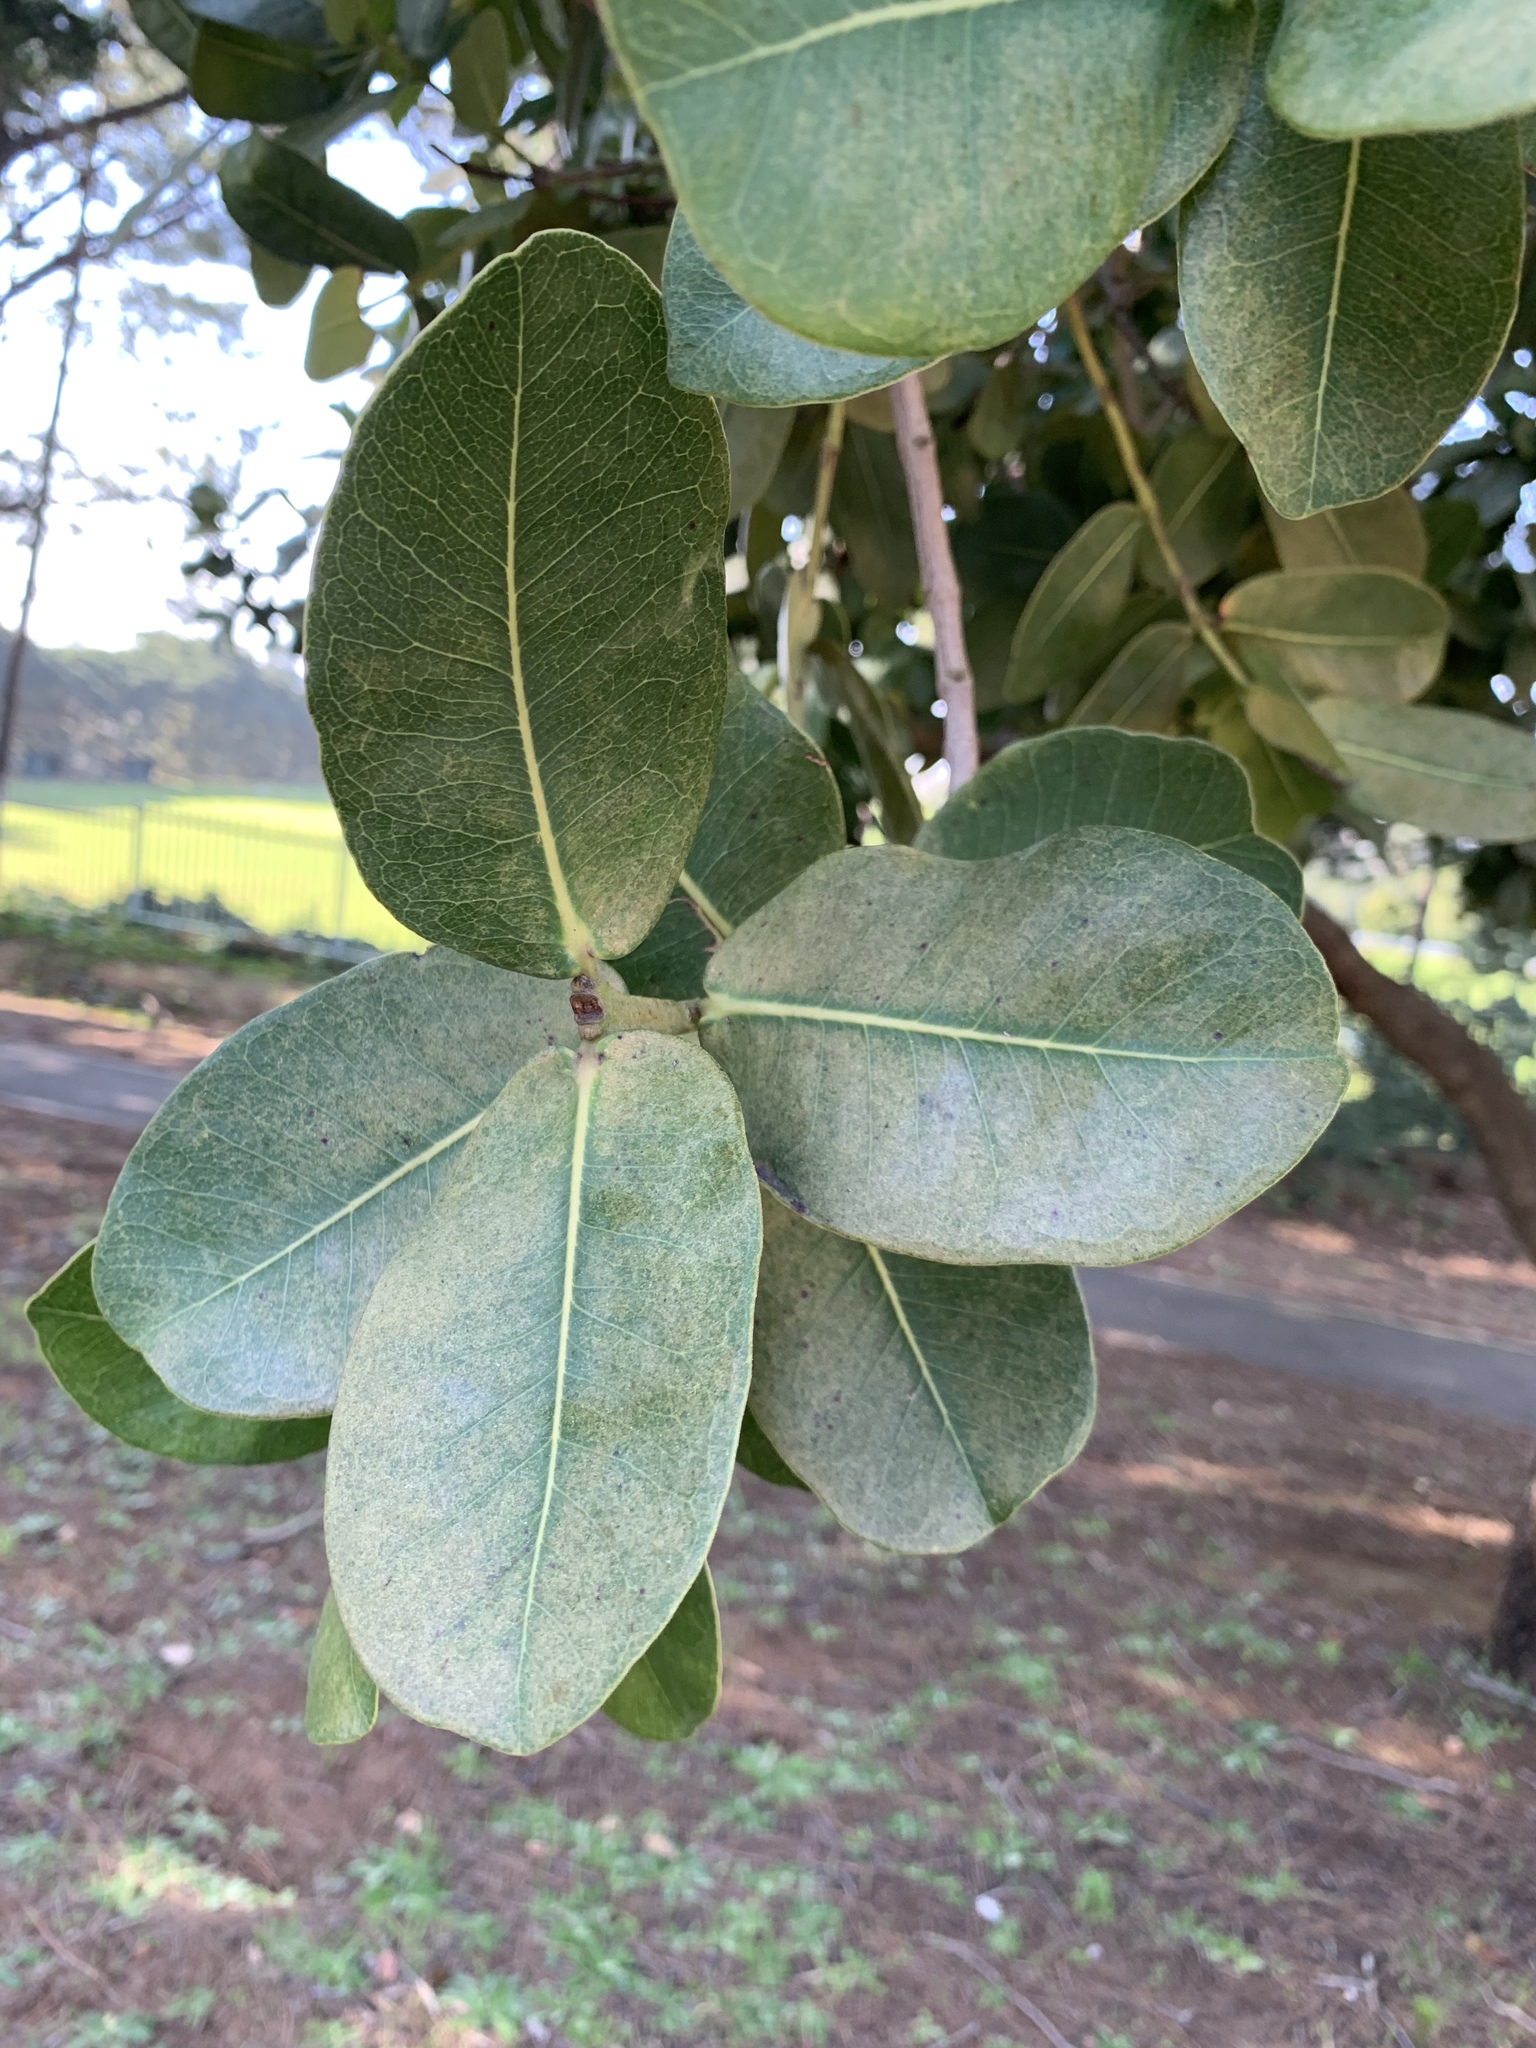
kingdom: Plantae
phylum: Tracheophyta
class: Magnoliopsida
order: Myrtales
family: Myrtaceae
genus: Syzygium
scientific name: Syzygium cordatum
